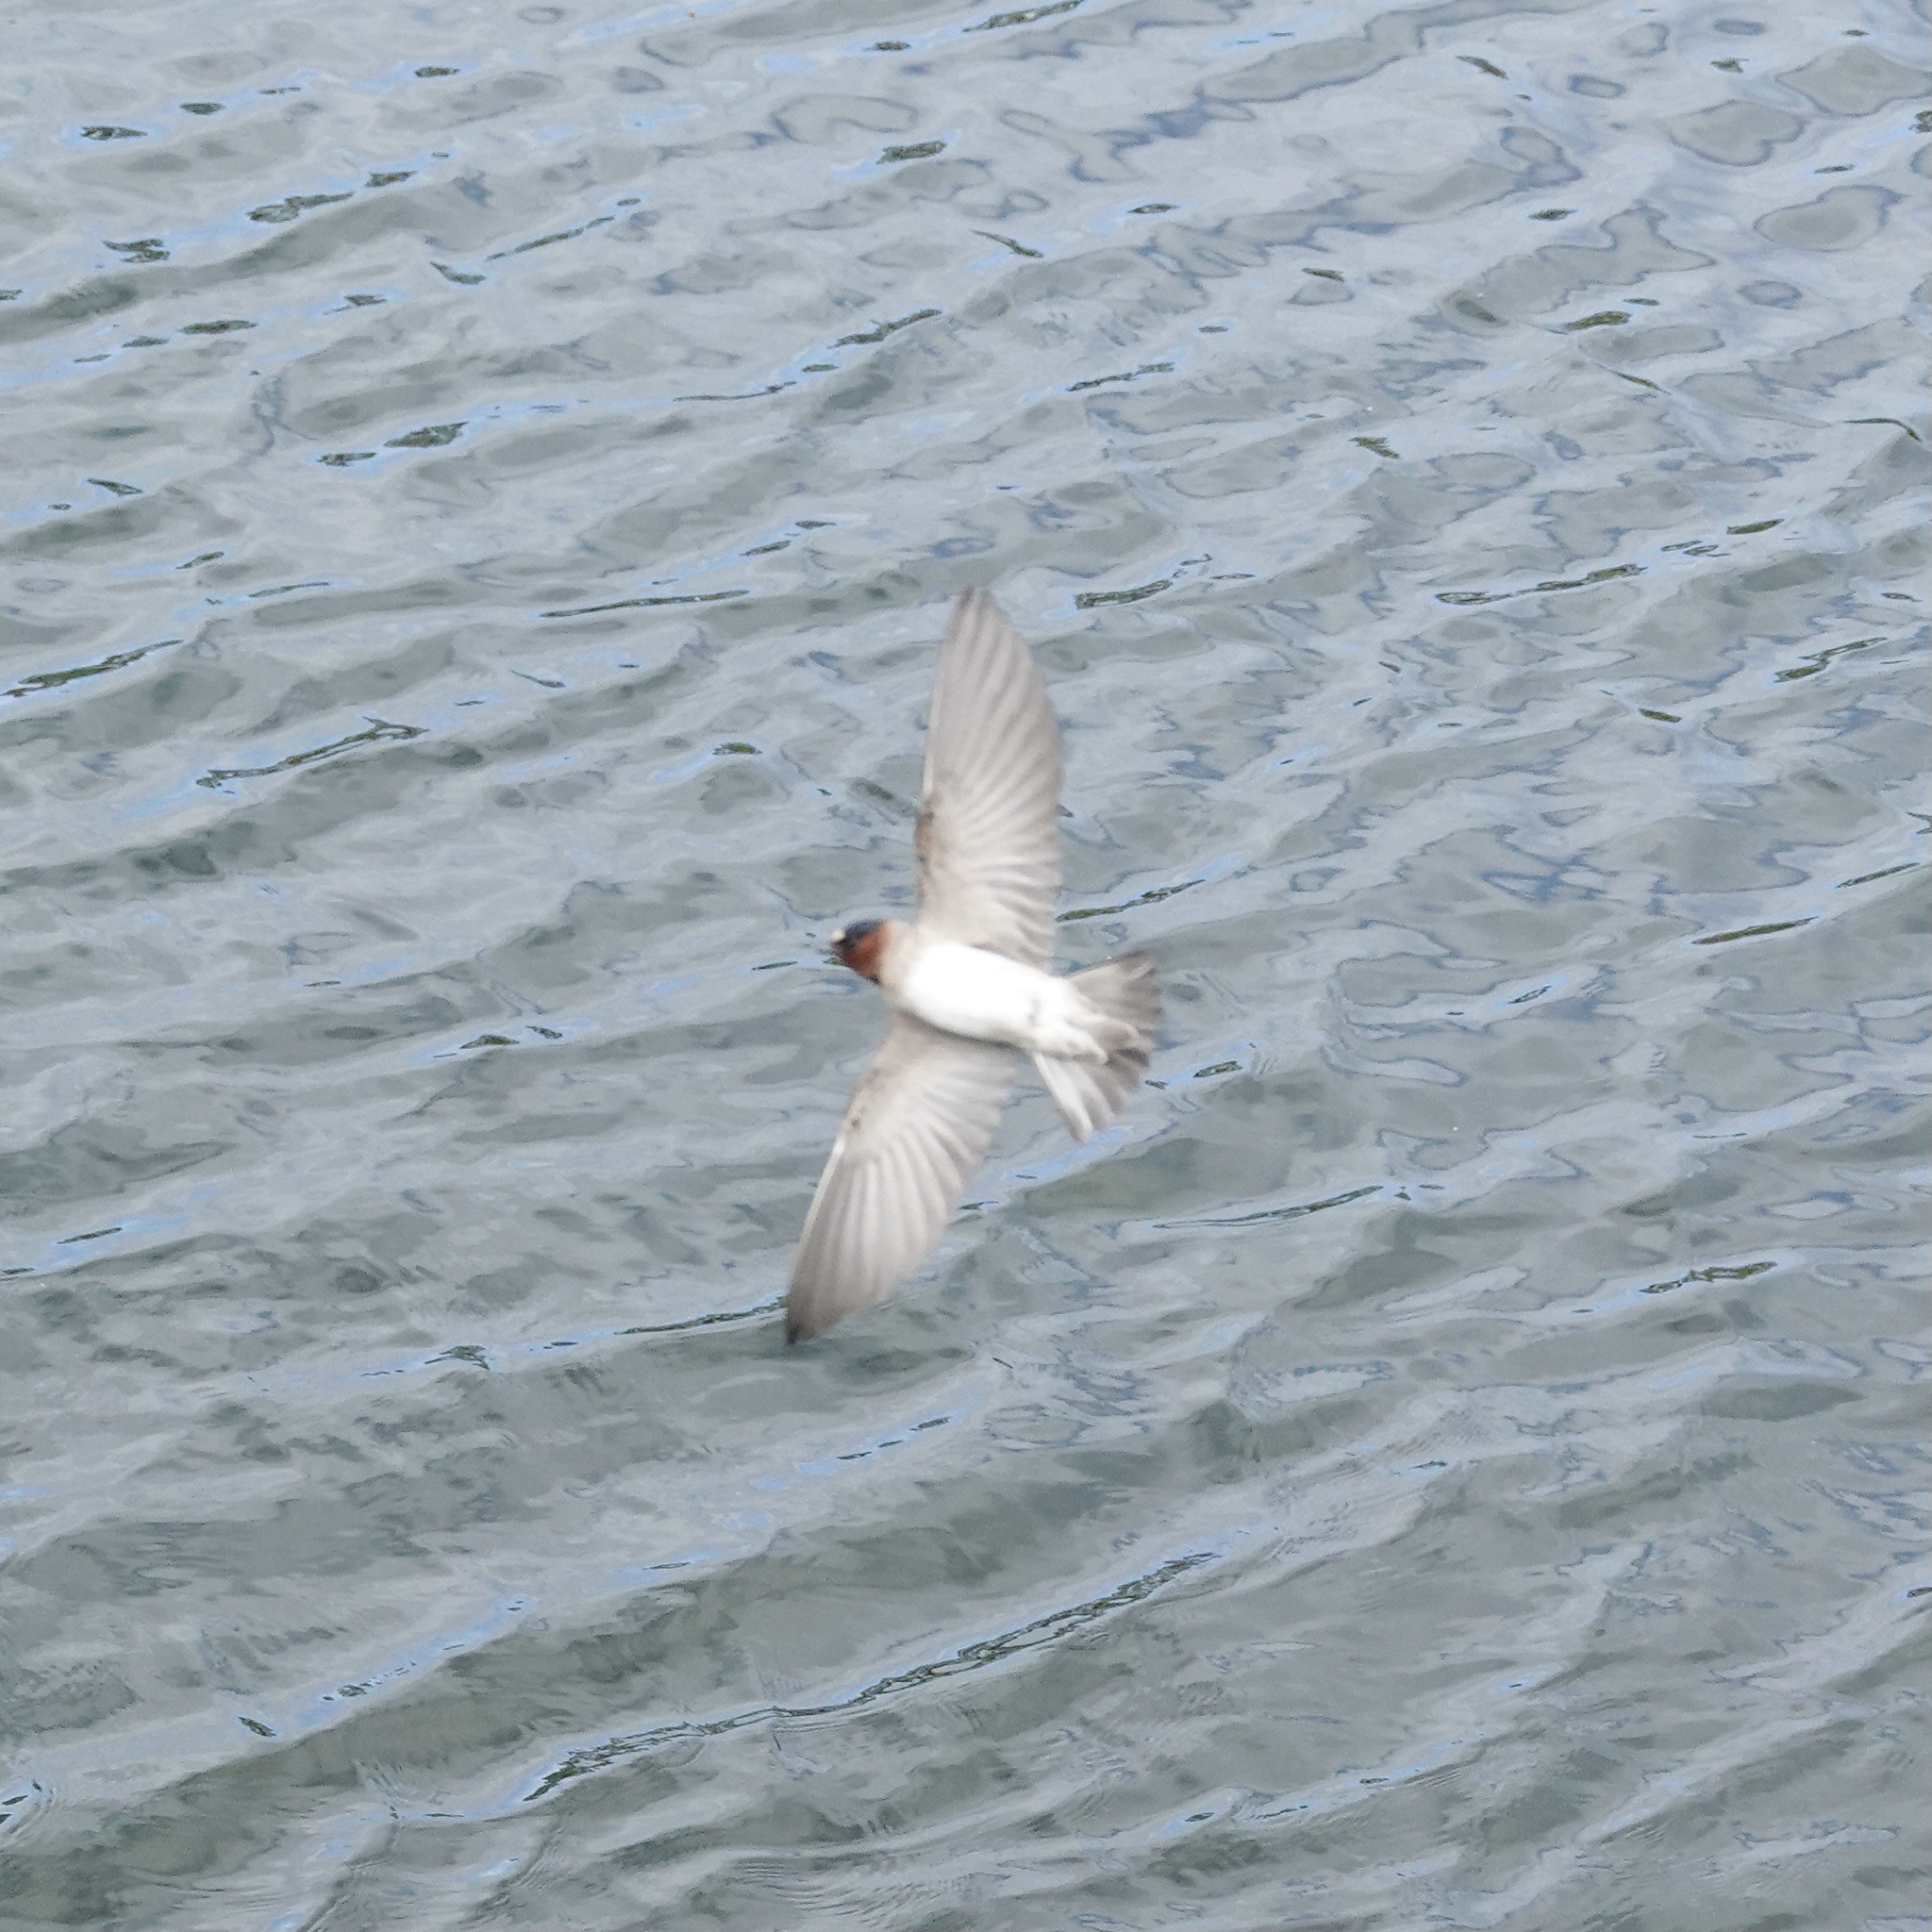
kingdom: Animalia
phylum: Chordata
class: Aves
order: Passeriformes
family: Hirundinidae
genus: Petrochelidon
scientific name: Petrochelidon pyrrhonota
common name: American cliff swallow
